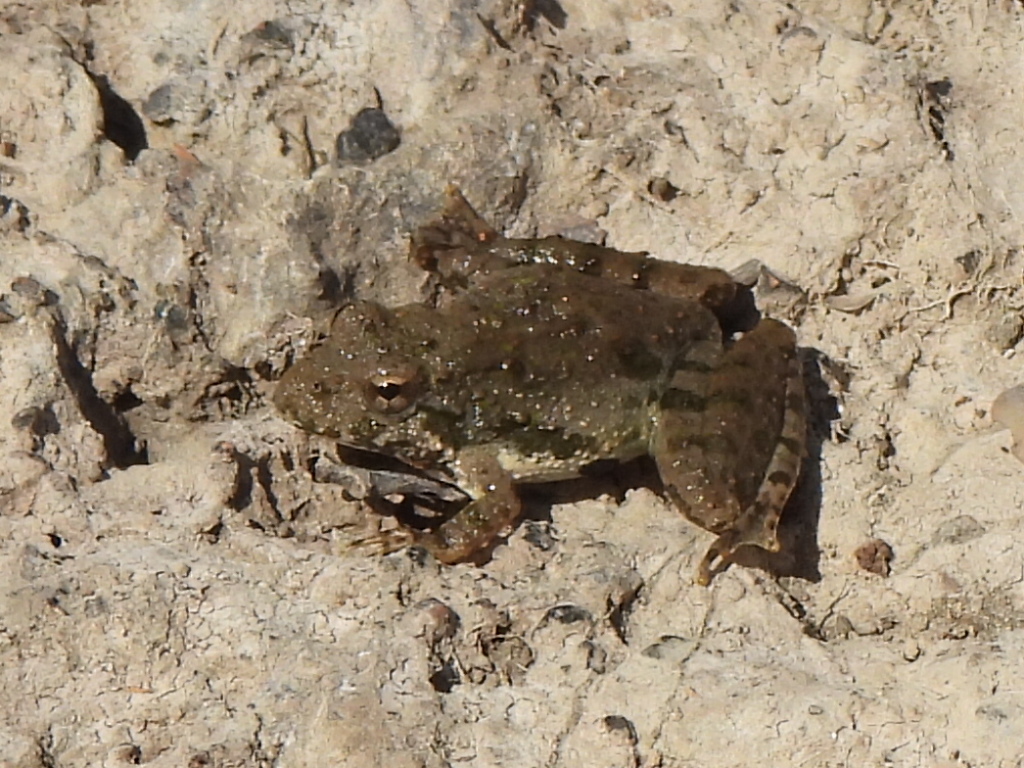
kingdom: Animalia
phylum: Chordata
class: Amphibia
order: Anura
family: Hylidae
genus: Acris
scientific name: Acris blanchardi
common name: Blanchard's cricket frog
